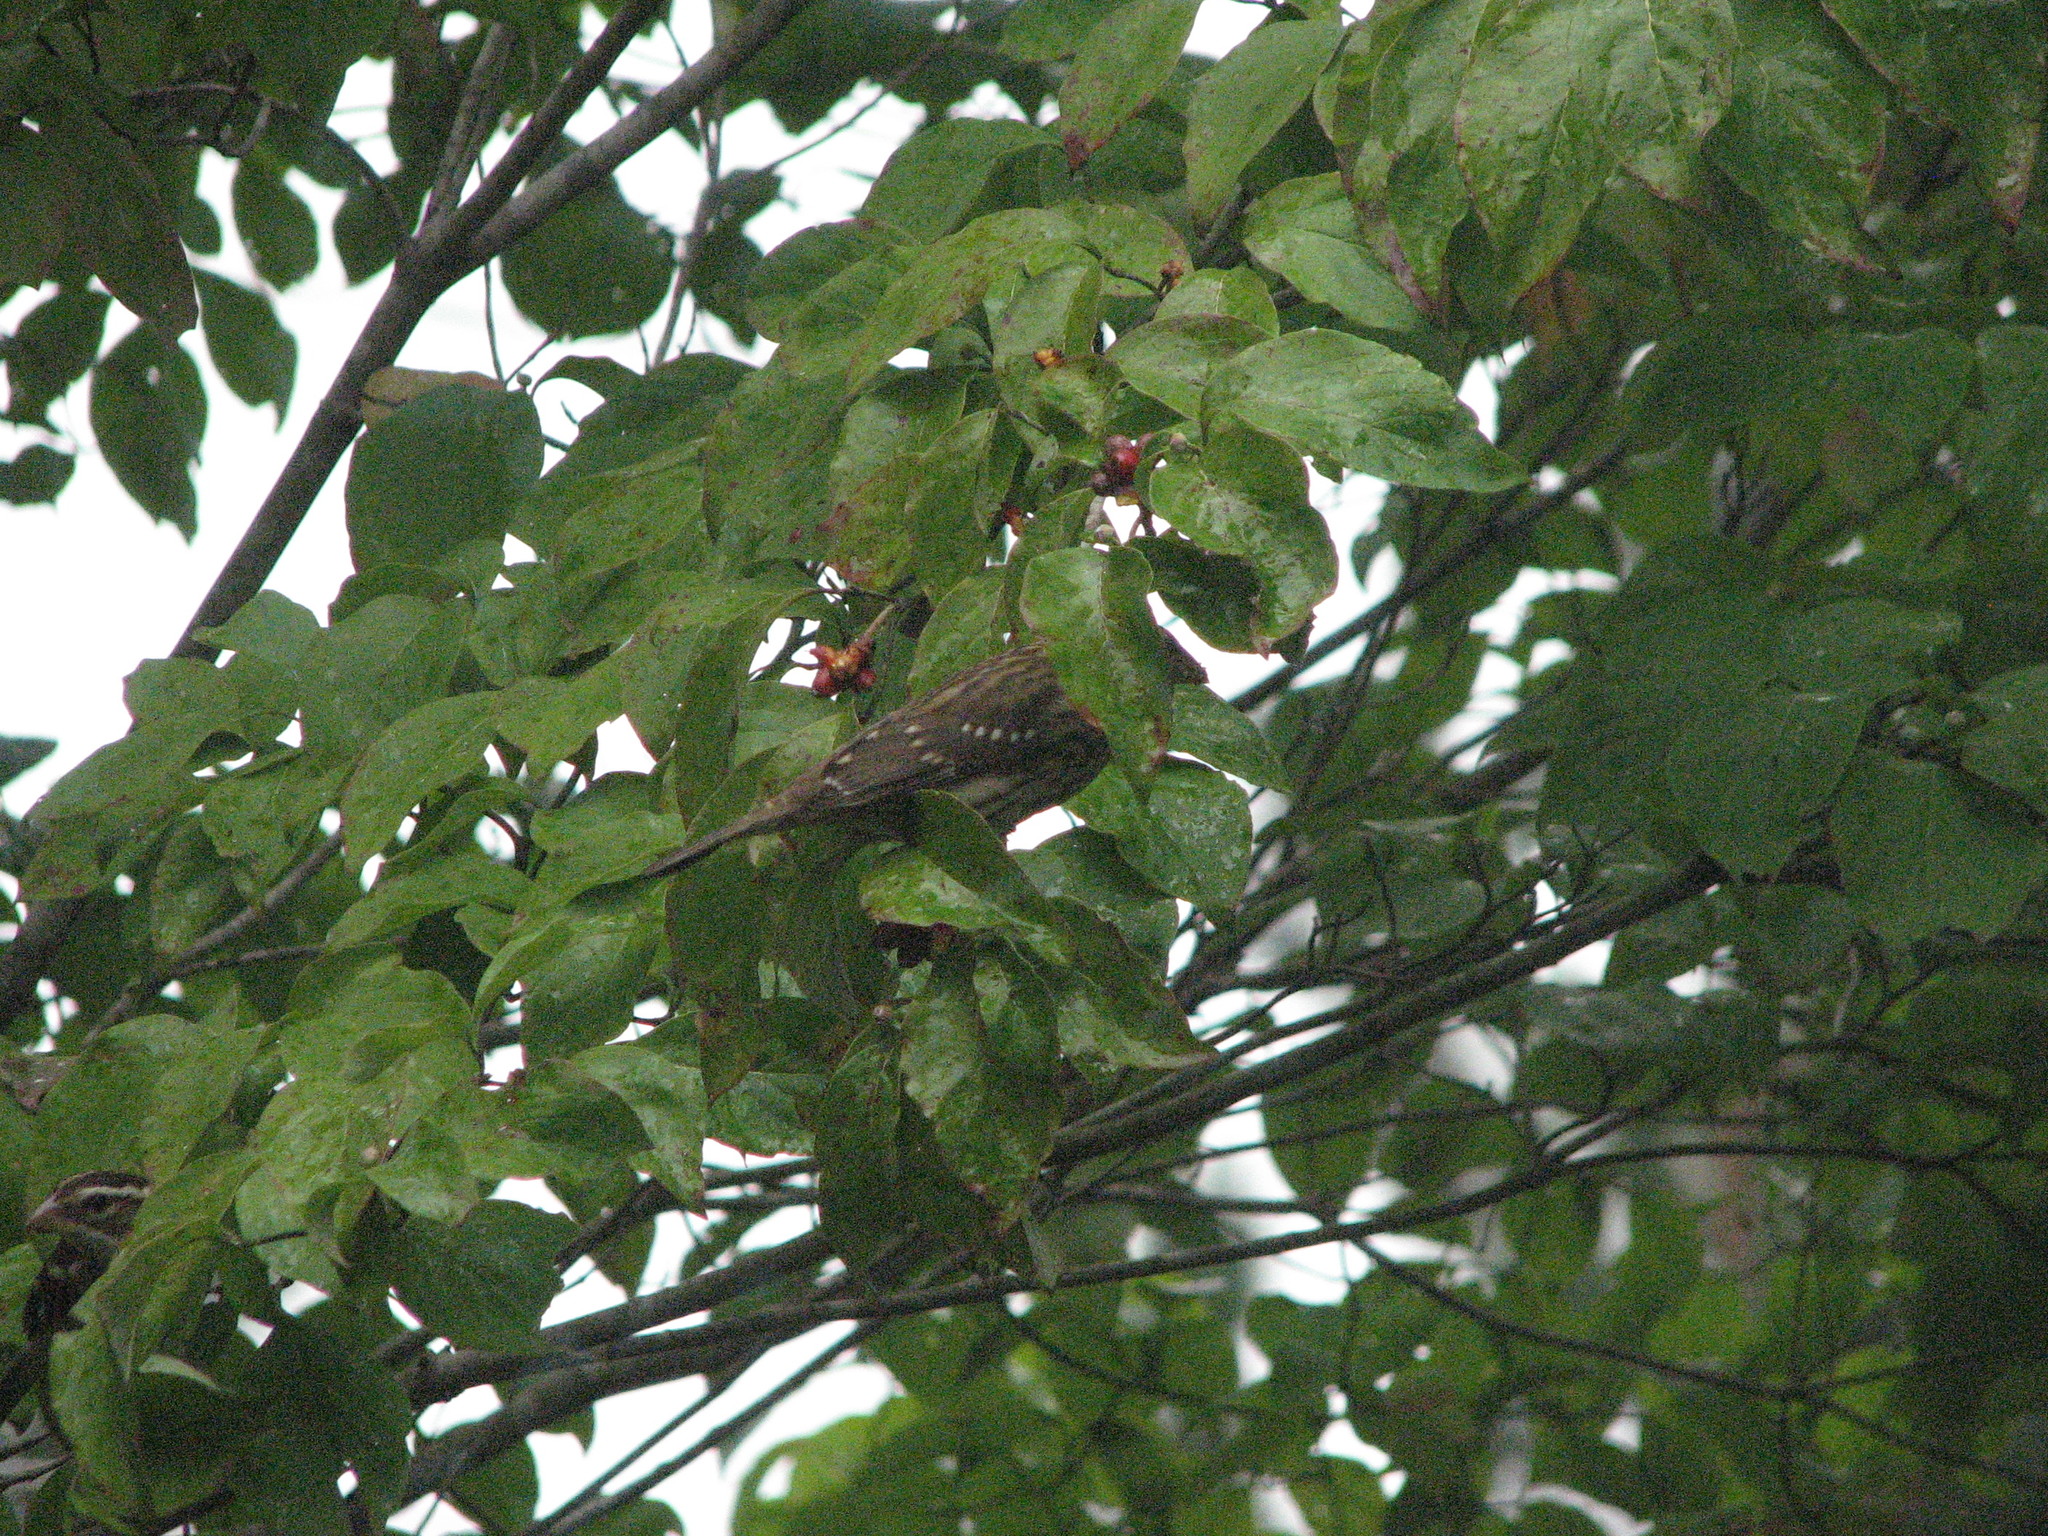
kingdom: Animalia
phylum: Chordata
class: Aves
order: Passeriformes
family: Cardinalidae
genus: Pheucticus
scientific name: Pheucticus ludovicianus
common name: Rose-breasted grosbeak
